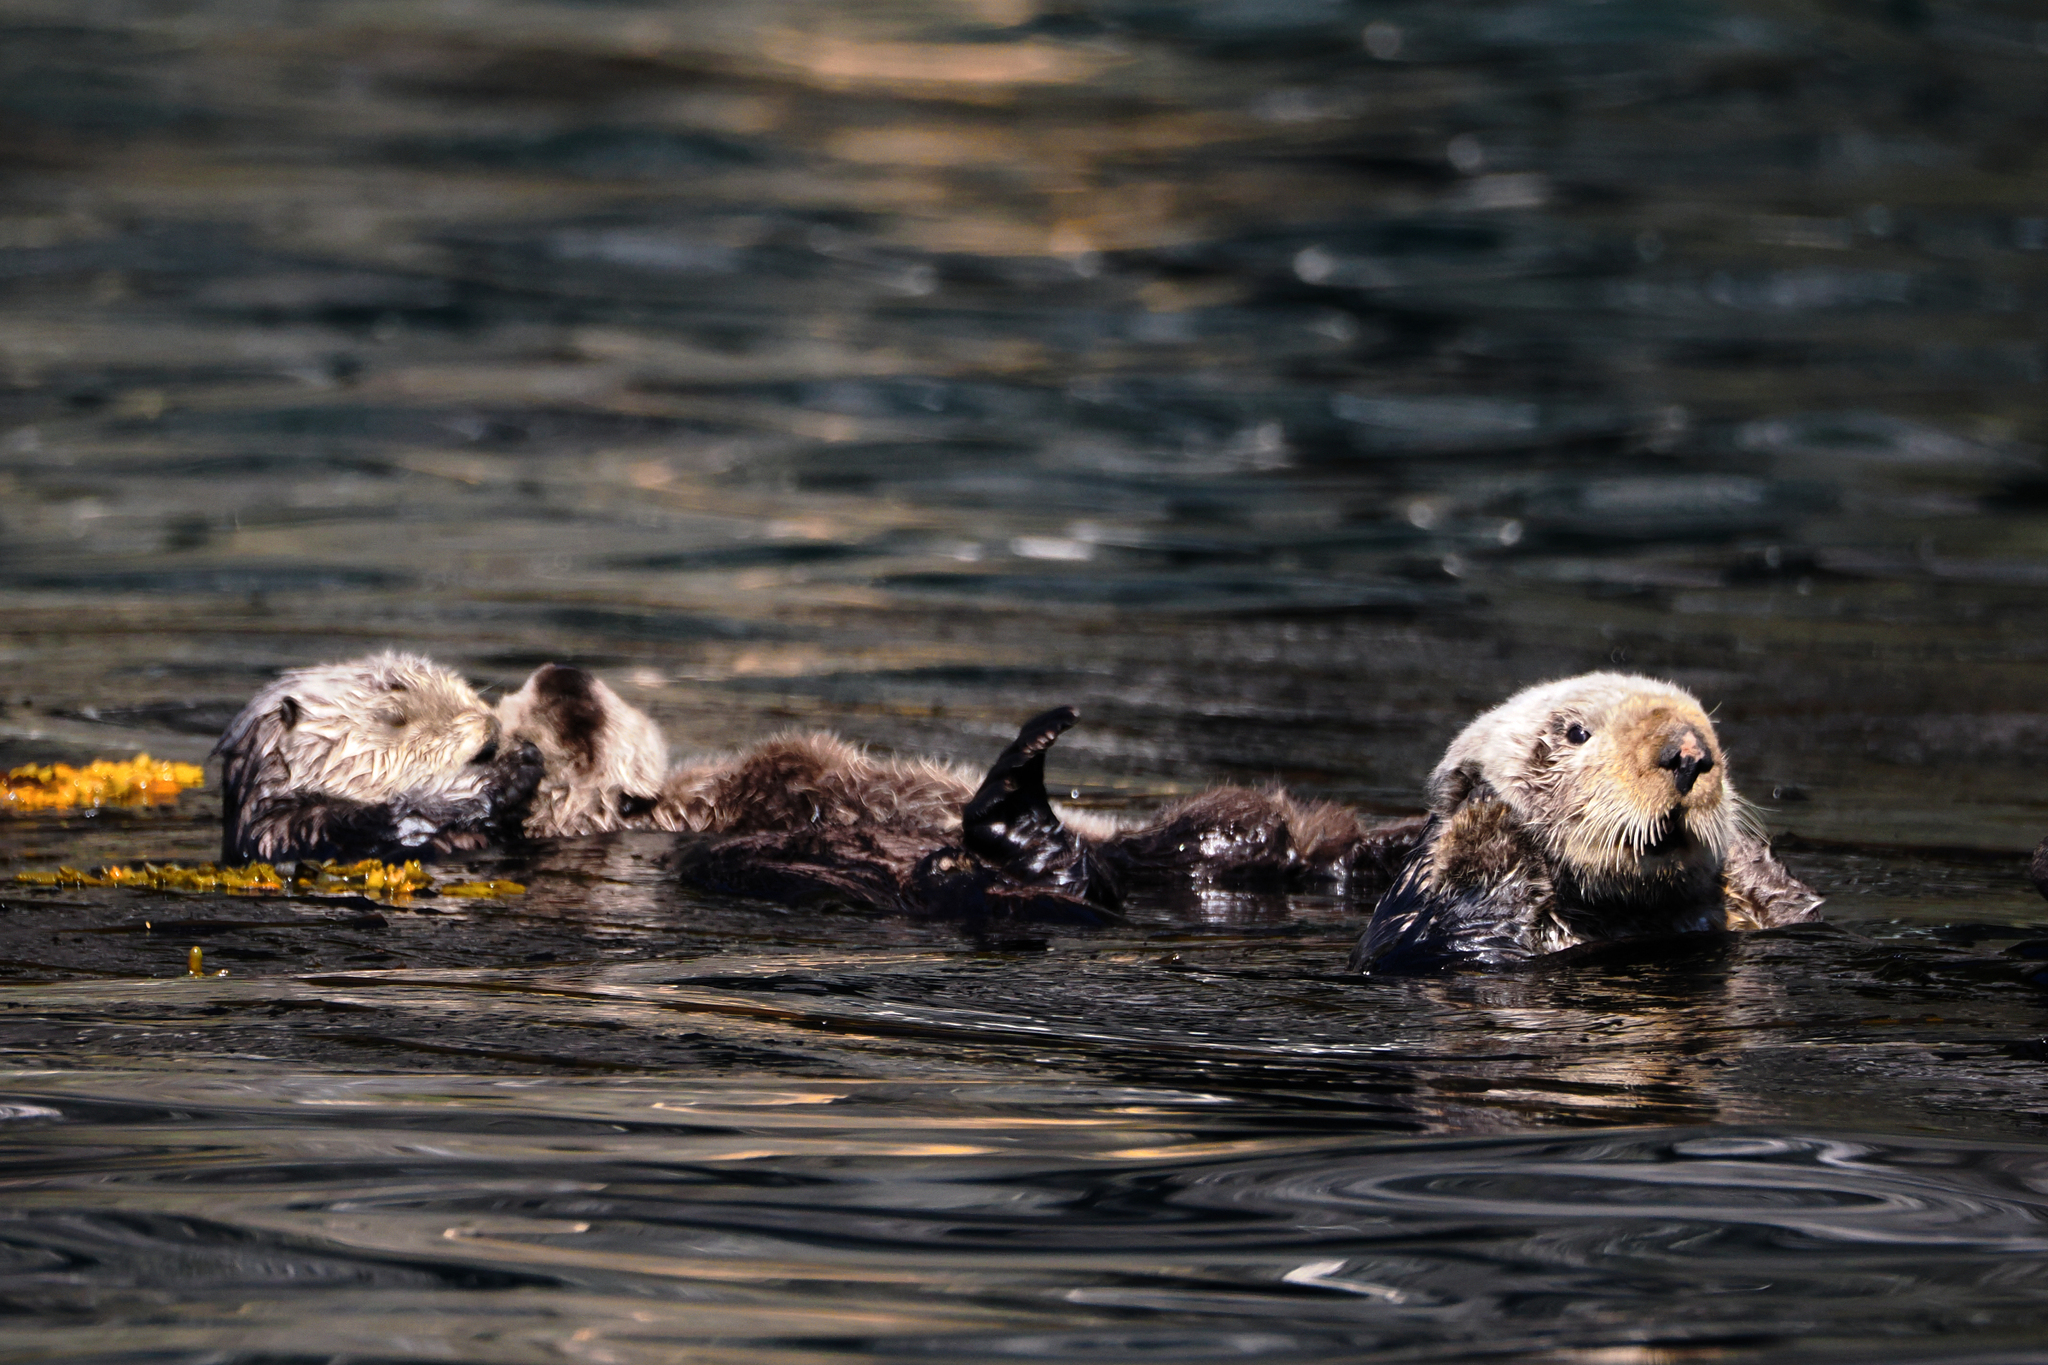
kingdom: Animalia
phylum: Chordata
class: Mammalia
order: Carnivora
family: Mustelidae
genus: Enhydra
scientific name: Enhydra lutris
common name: Sea otter
